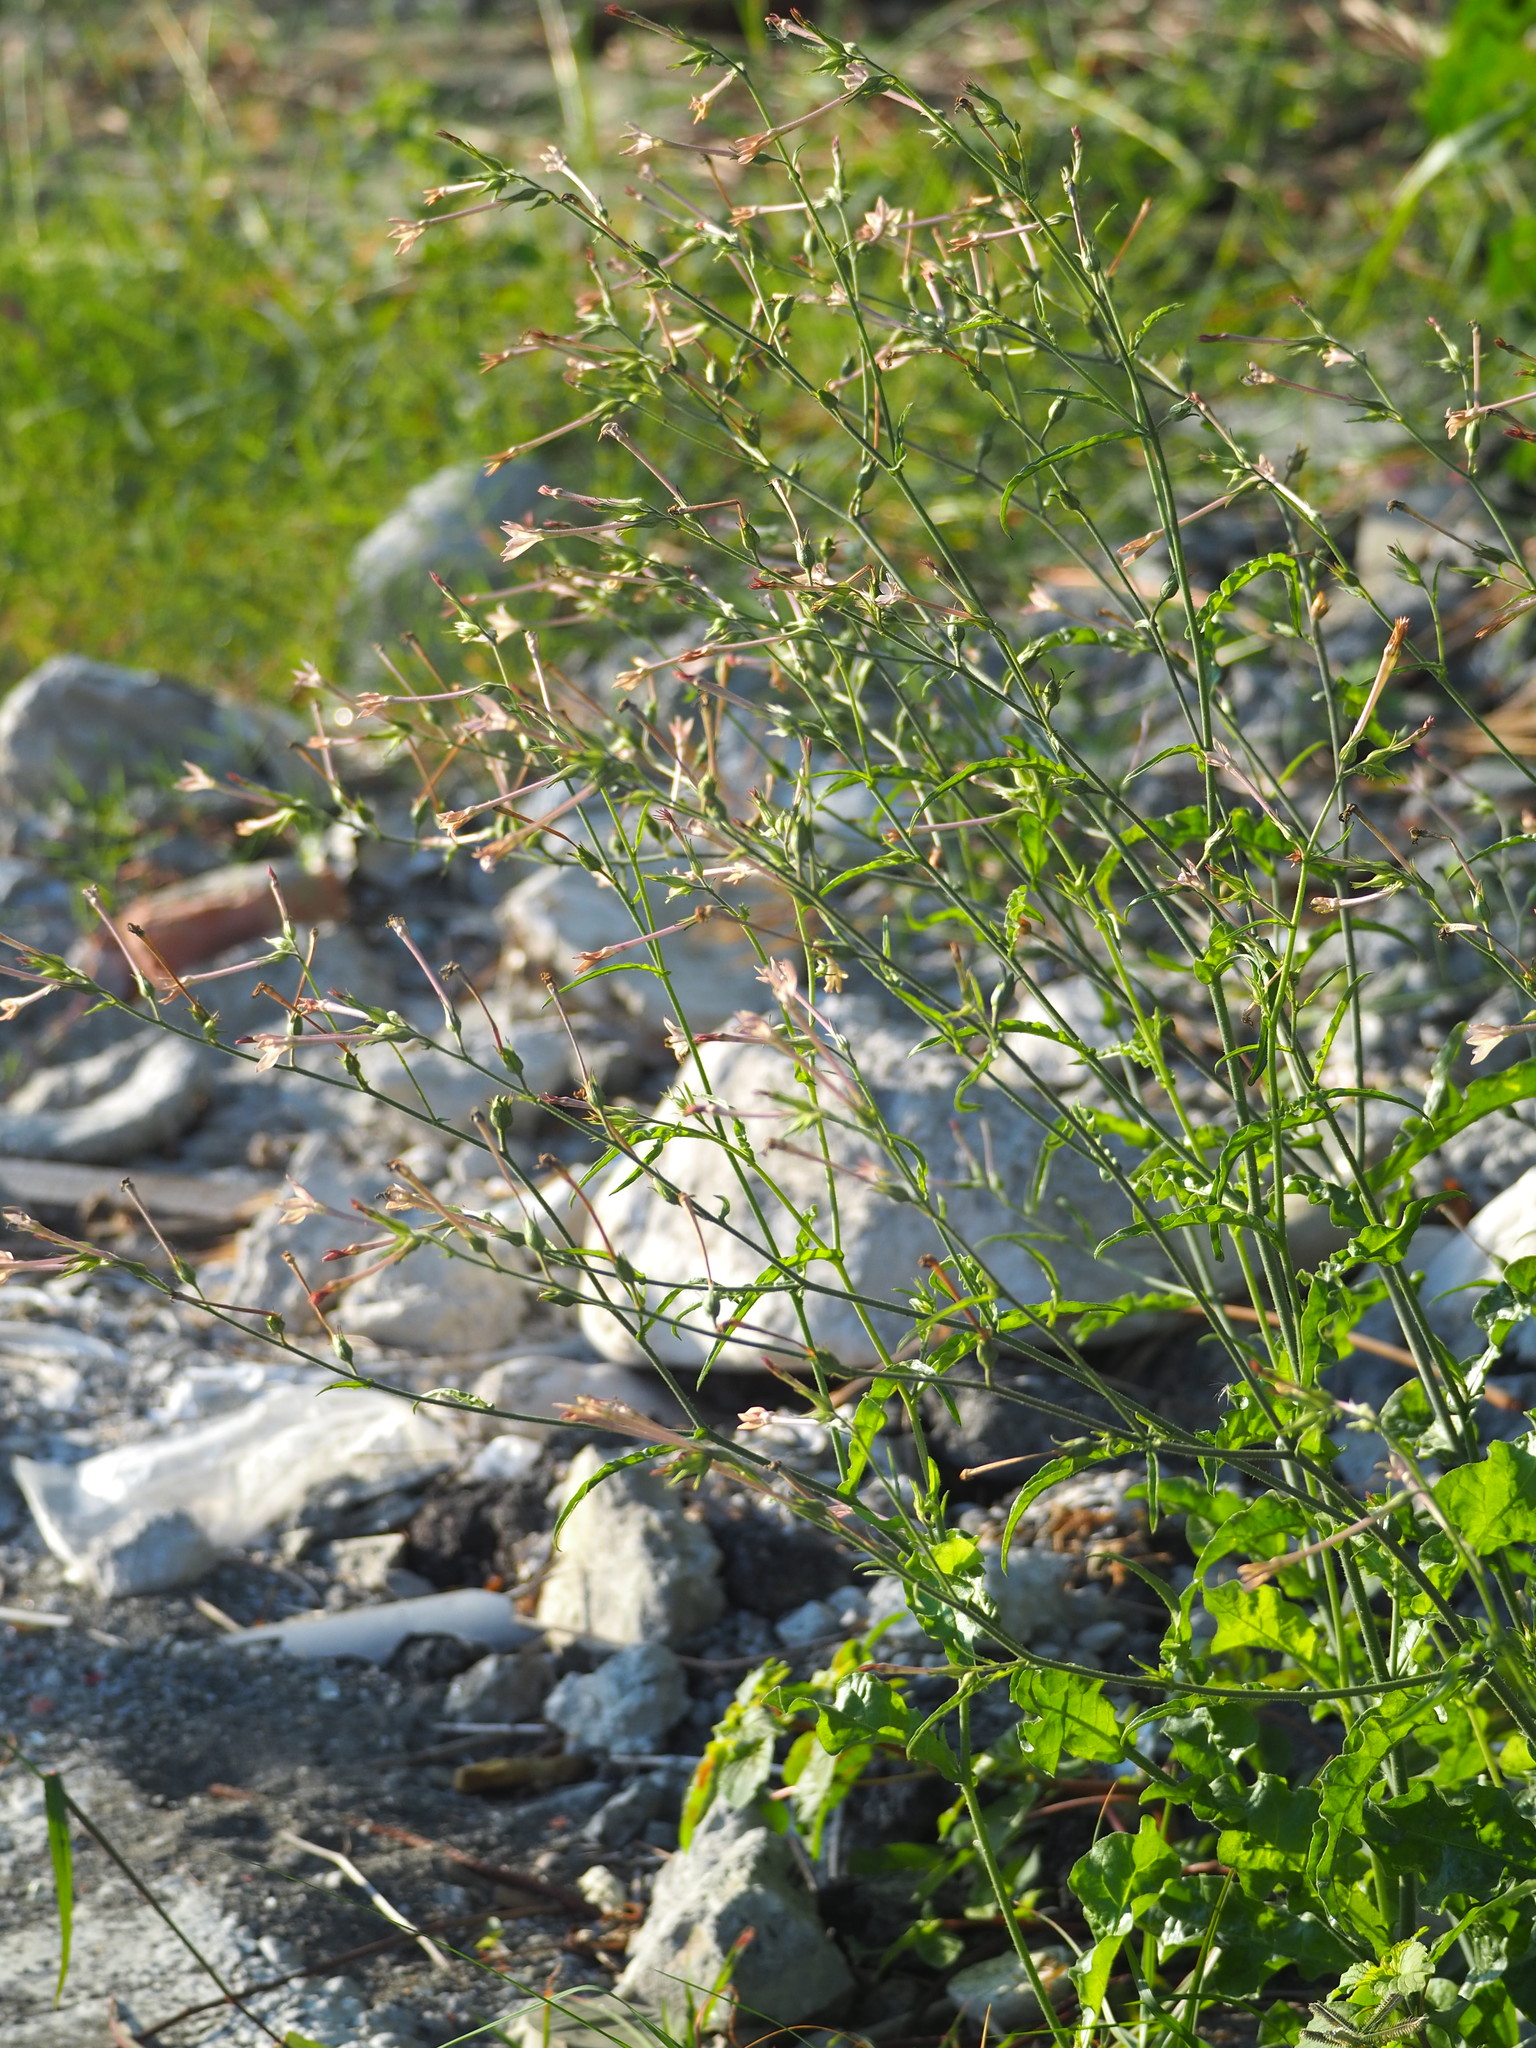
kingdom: Plantae
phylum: Tracheophyta
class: Magnoliopsida
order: Solanales
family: Solanaceae
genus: Nicotiana
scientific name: Nicotiana plumbaginifolia
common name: Tex-mex tobacco
